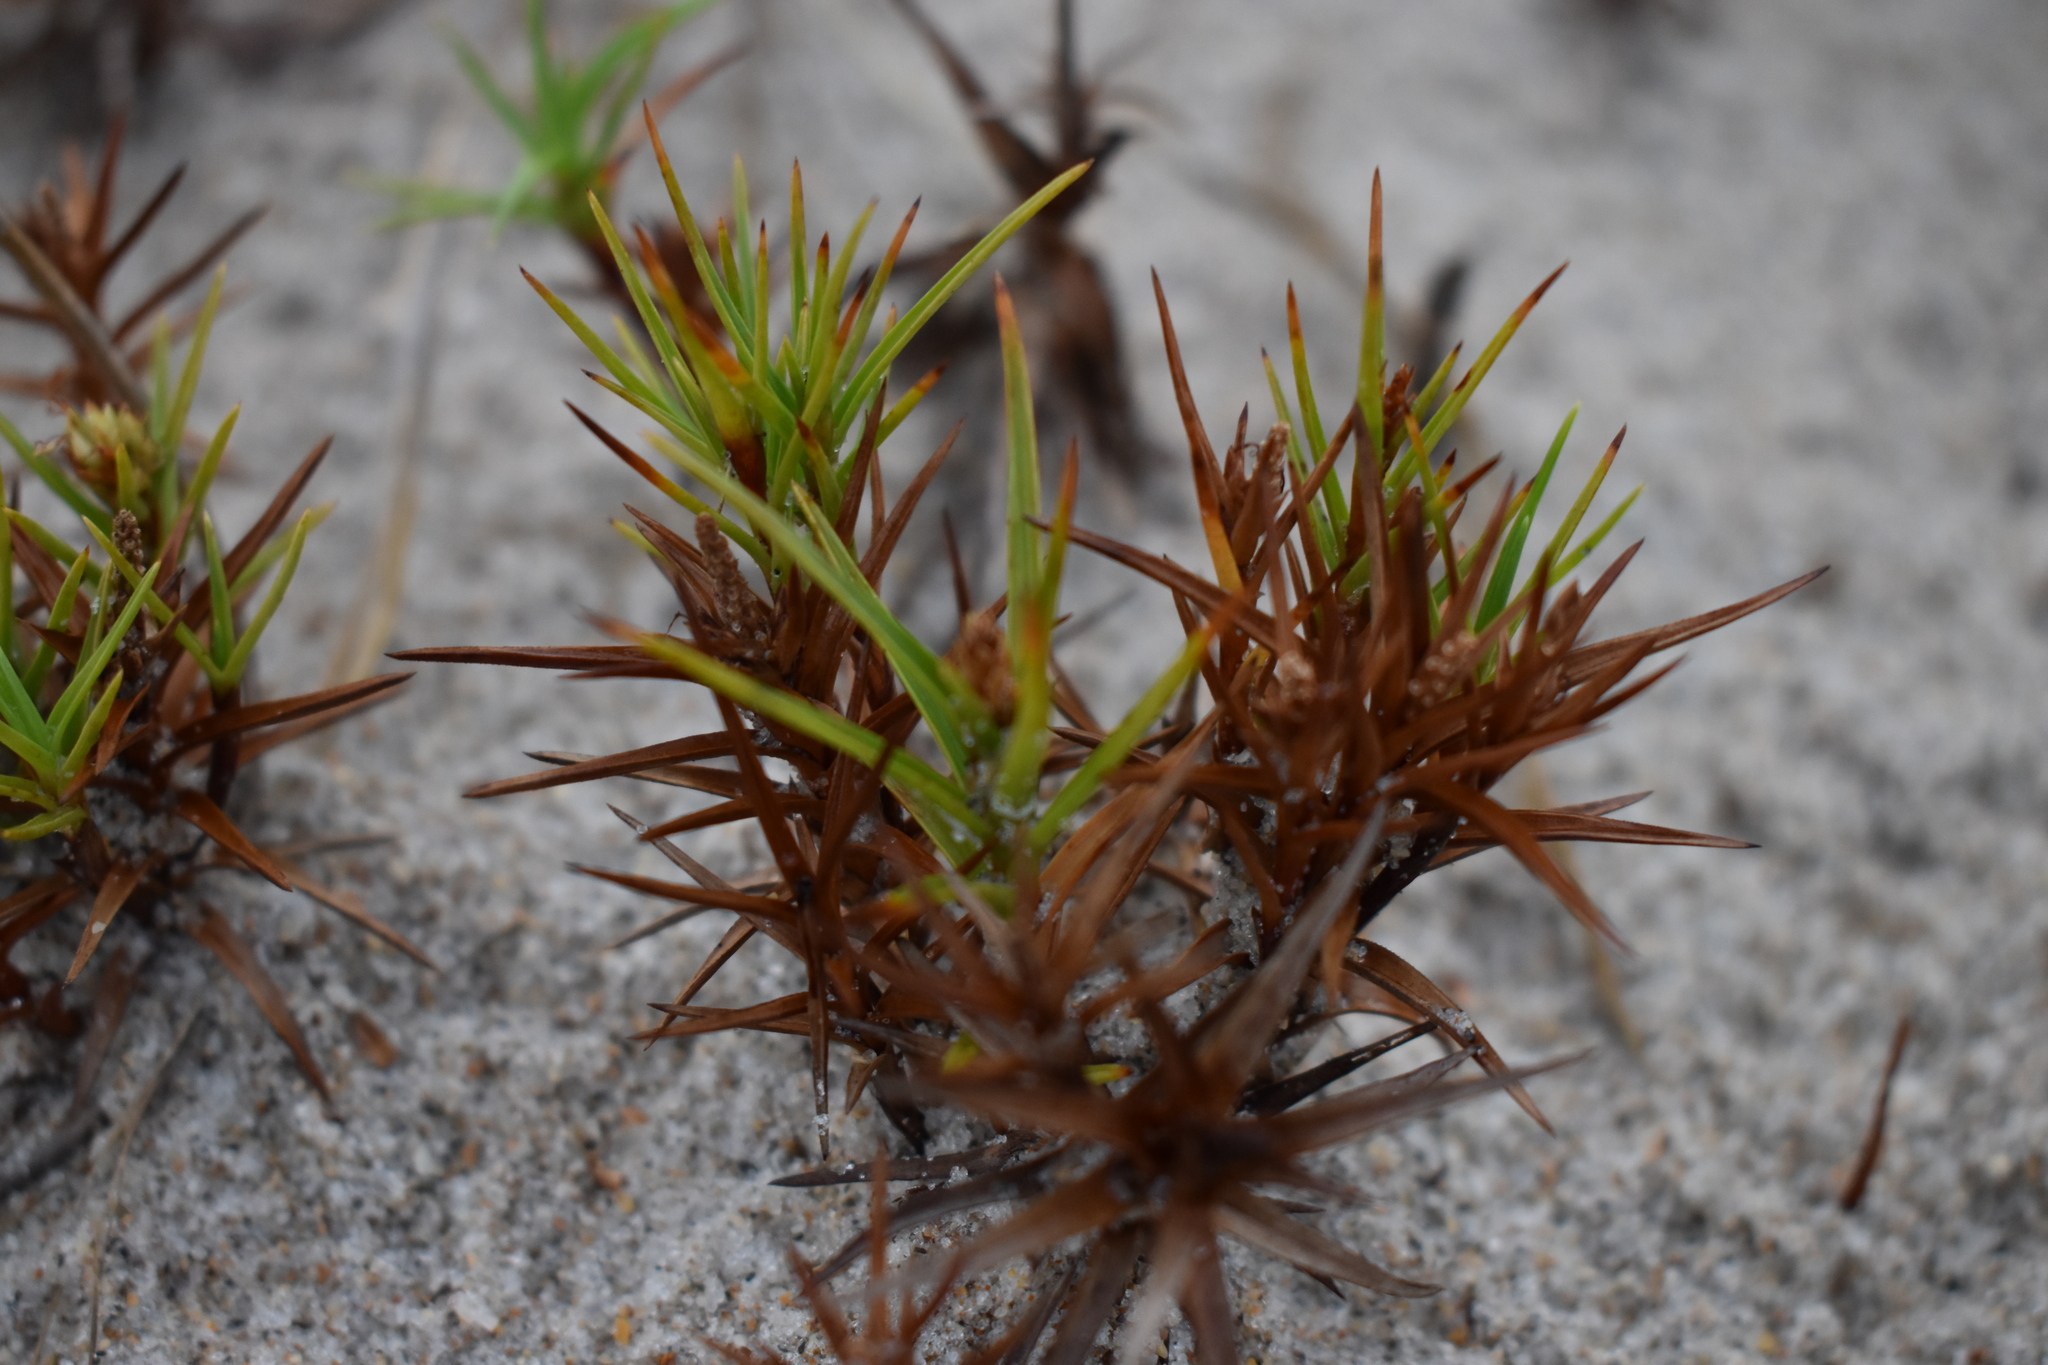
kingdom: Plantae
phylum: Tracheophyta
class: Liliopsida
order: Poales
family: Cyperaceae
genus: Cyperus
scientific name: Cyperus pedunculatus
